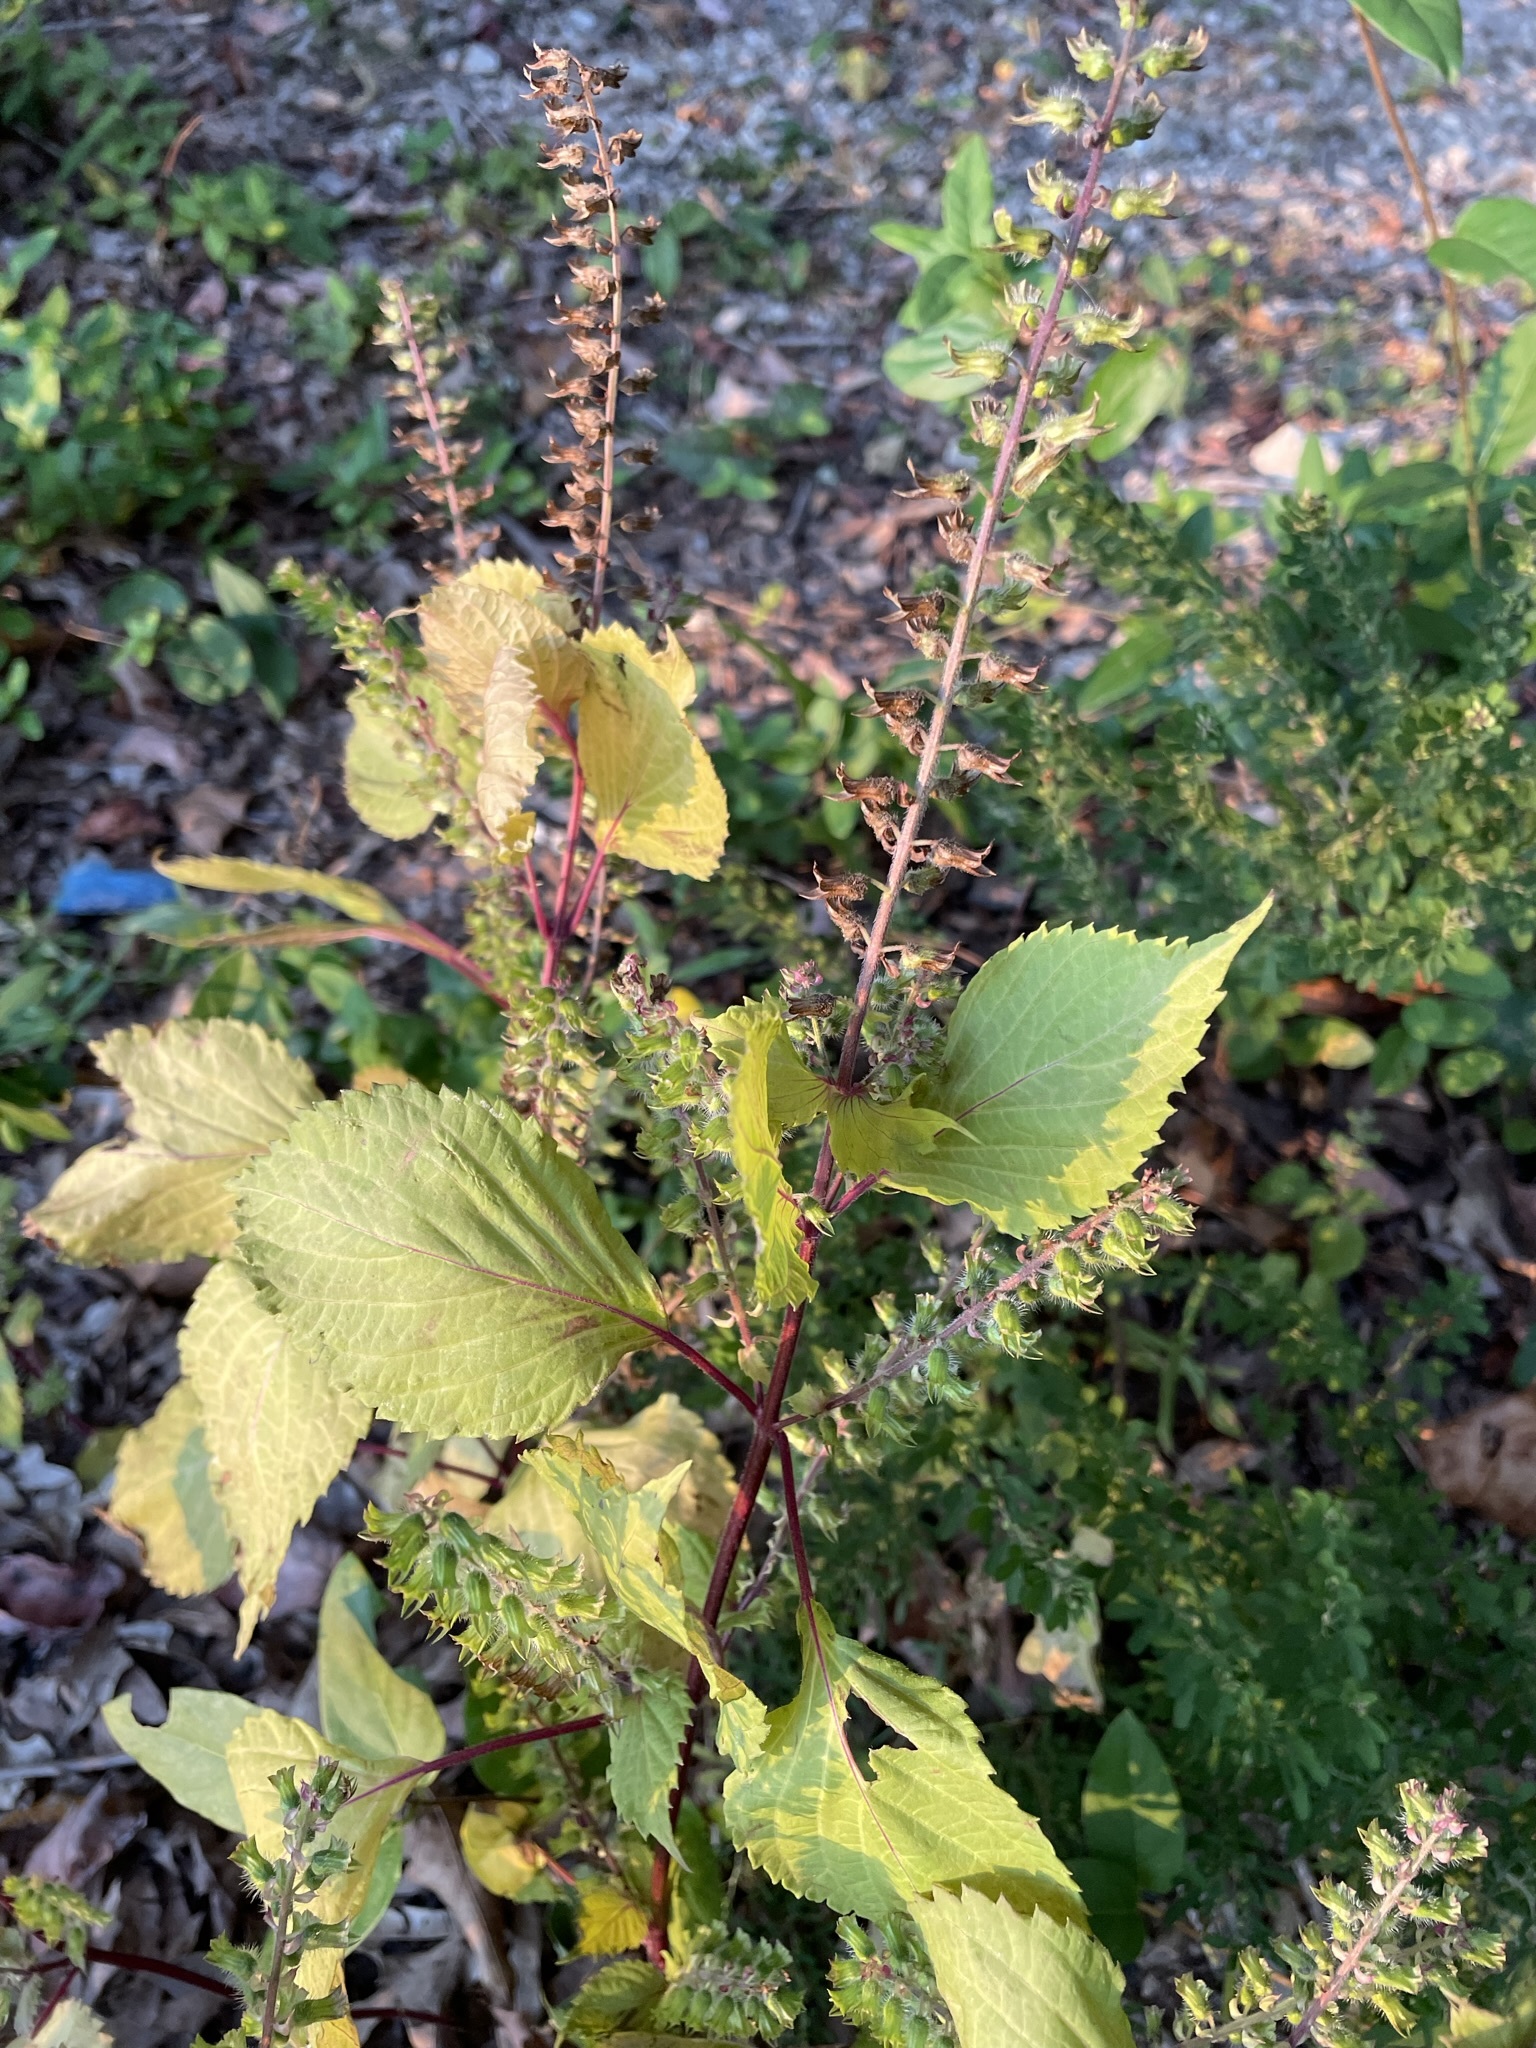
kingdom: Plantae
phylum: Tracheophyta
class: Magnoliopsida
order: Lamiales
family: Lamiaceae
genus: Perilla
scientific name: Perilla frutescens
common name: Perilla
